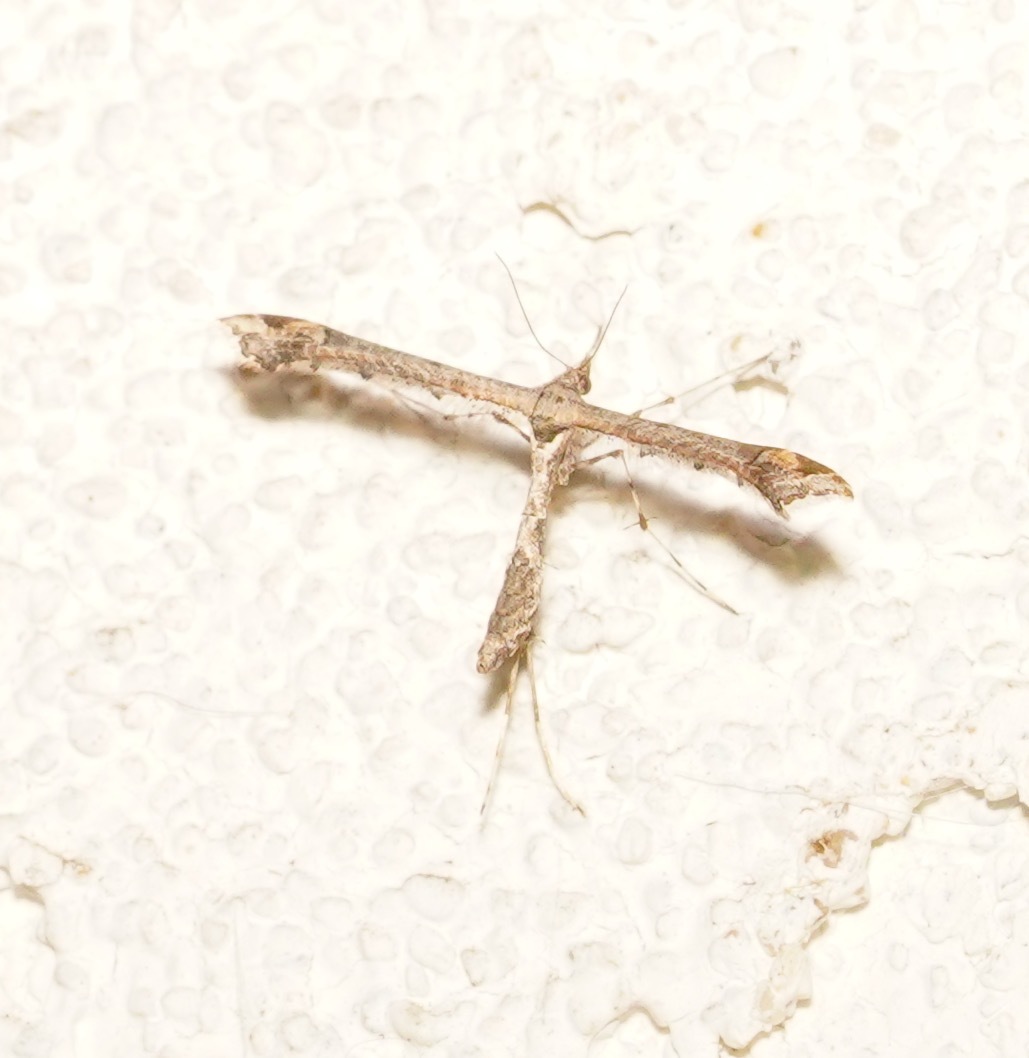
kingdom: Animalia
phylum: Arthropoda
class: Insecta
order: Lepidoptera
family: Pterophoridae
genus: Anstenoptilia
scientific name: Anstenoptilia marmarodactyla
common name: Moth
